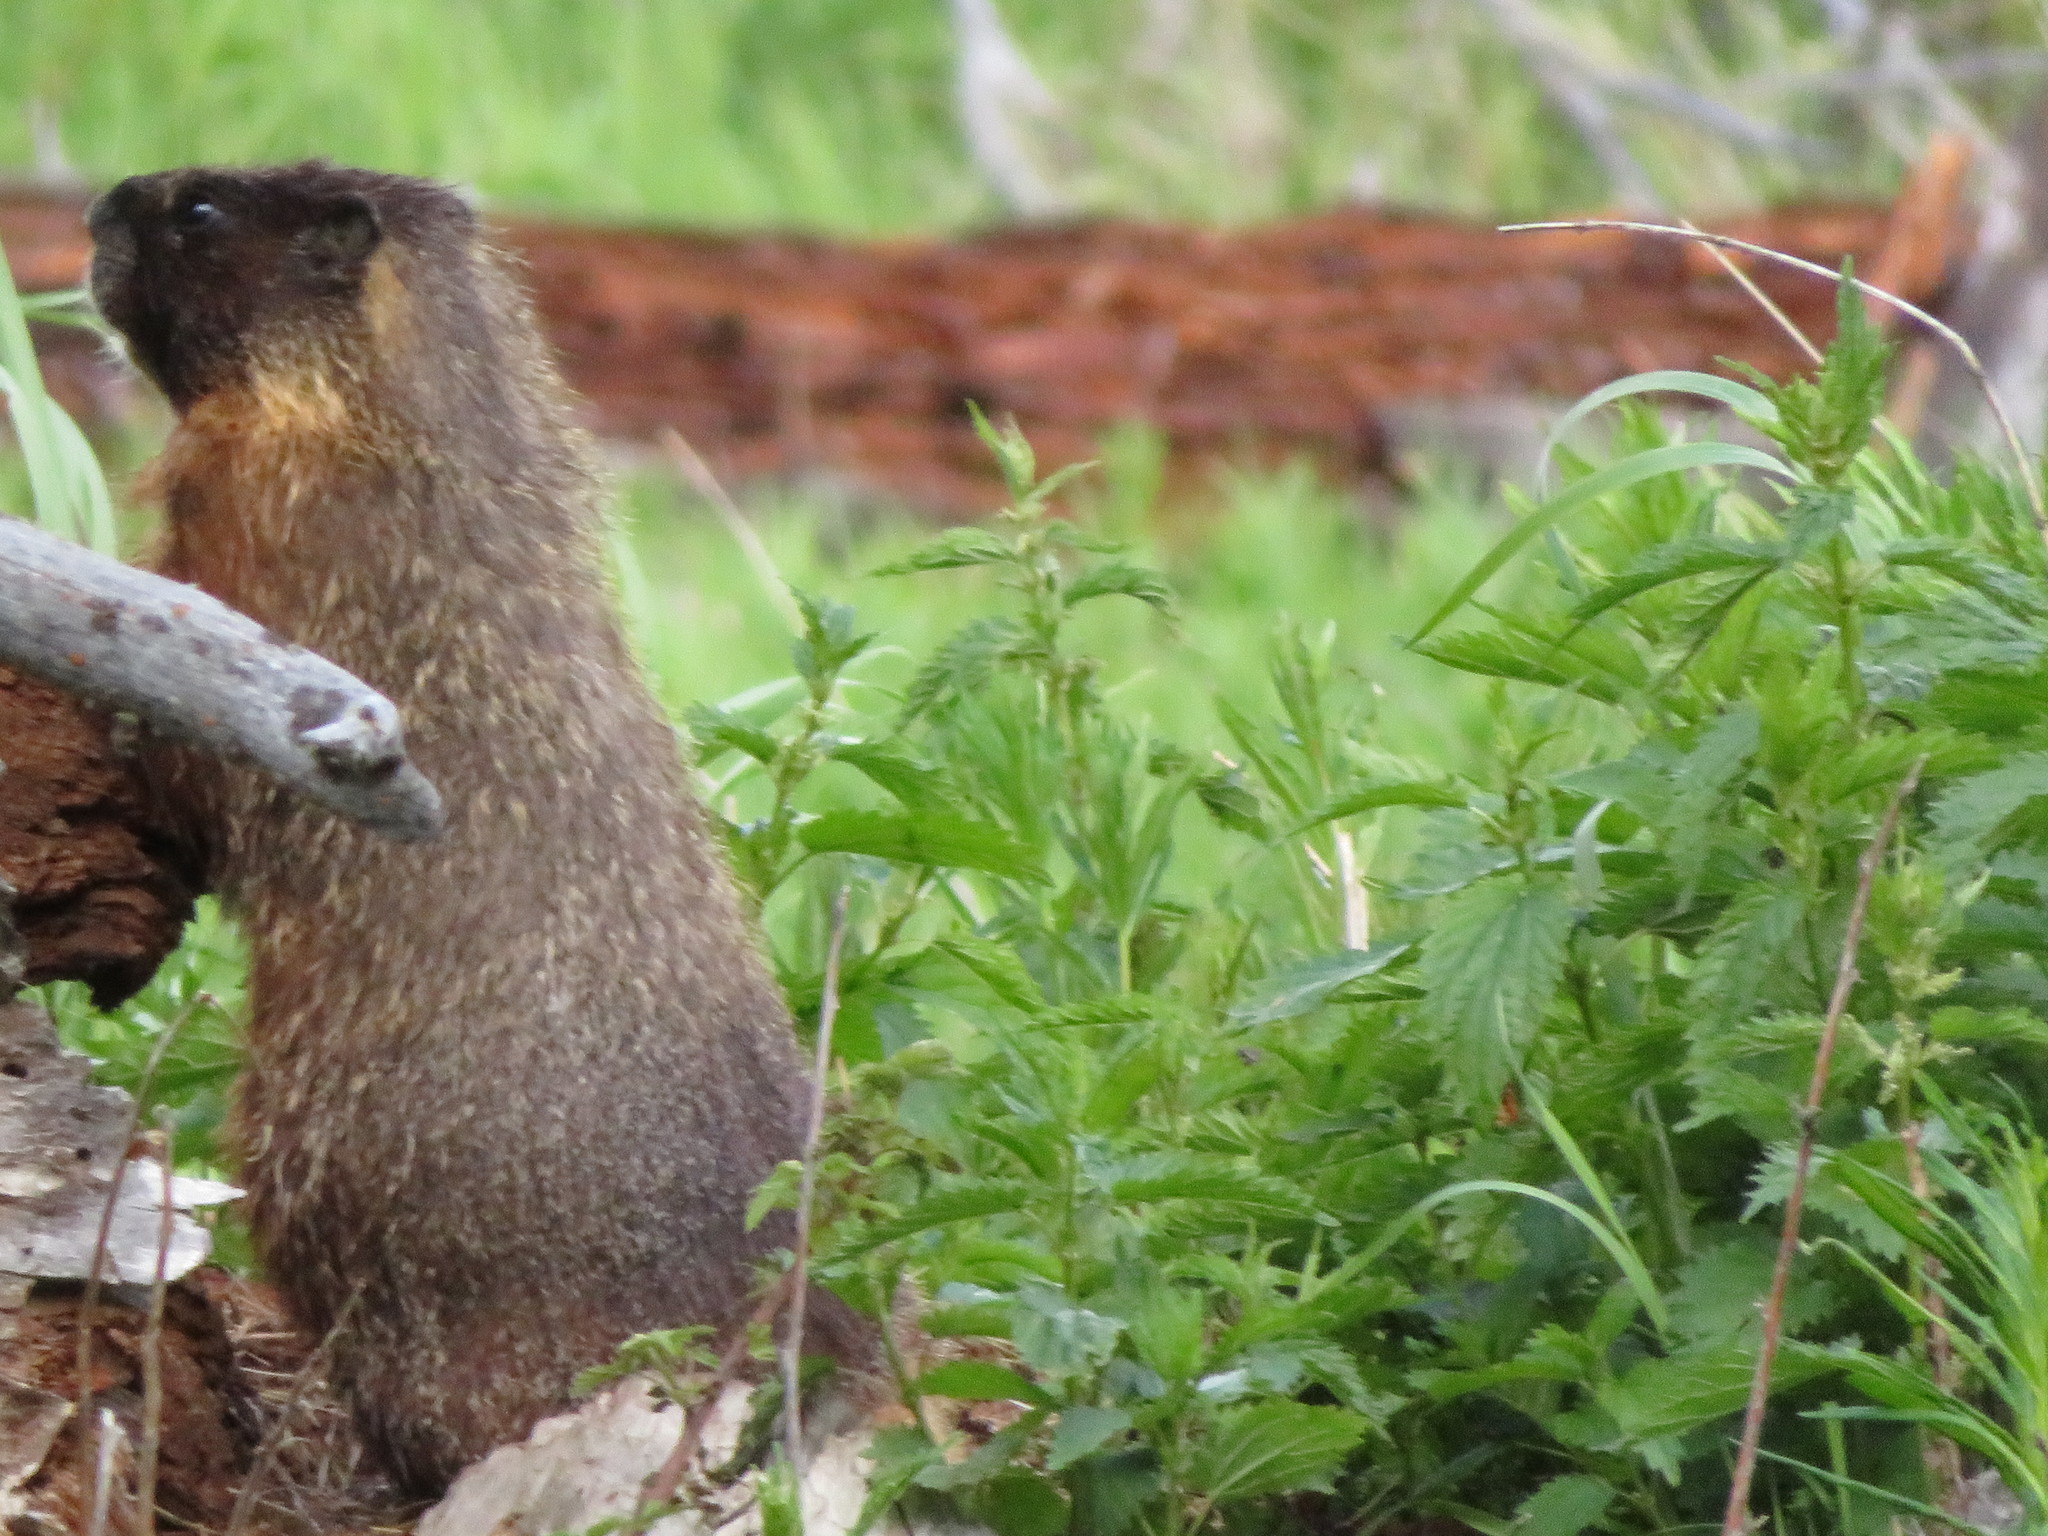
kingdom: Animalia
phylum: Chordata
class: Mammalia
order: Rodentia
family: Sciuridae
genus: Marmota
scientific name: Marmota flaviventris
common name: Yellow-bellied marmot
